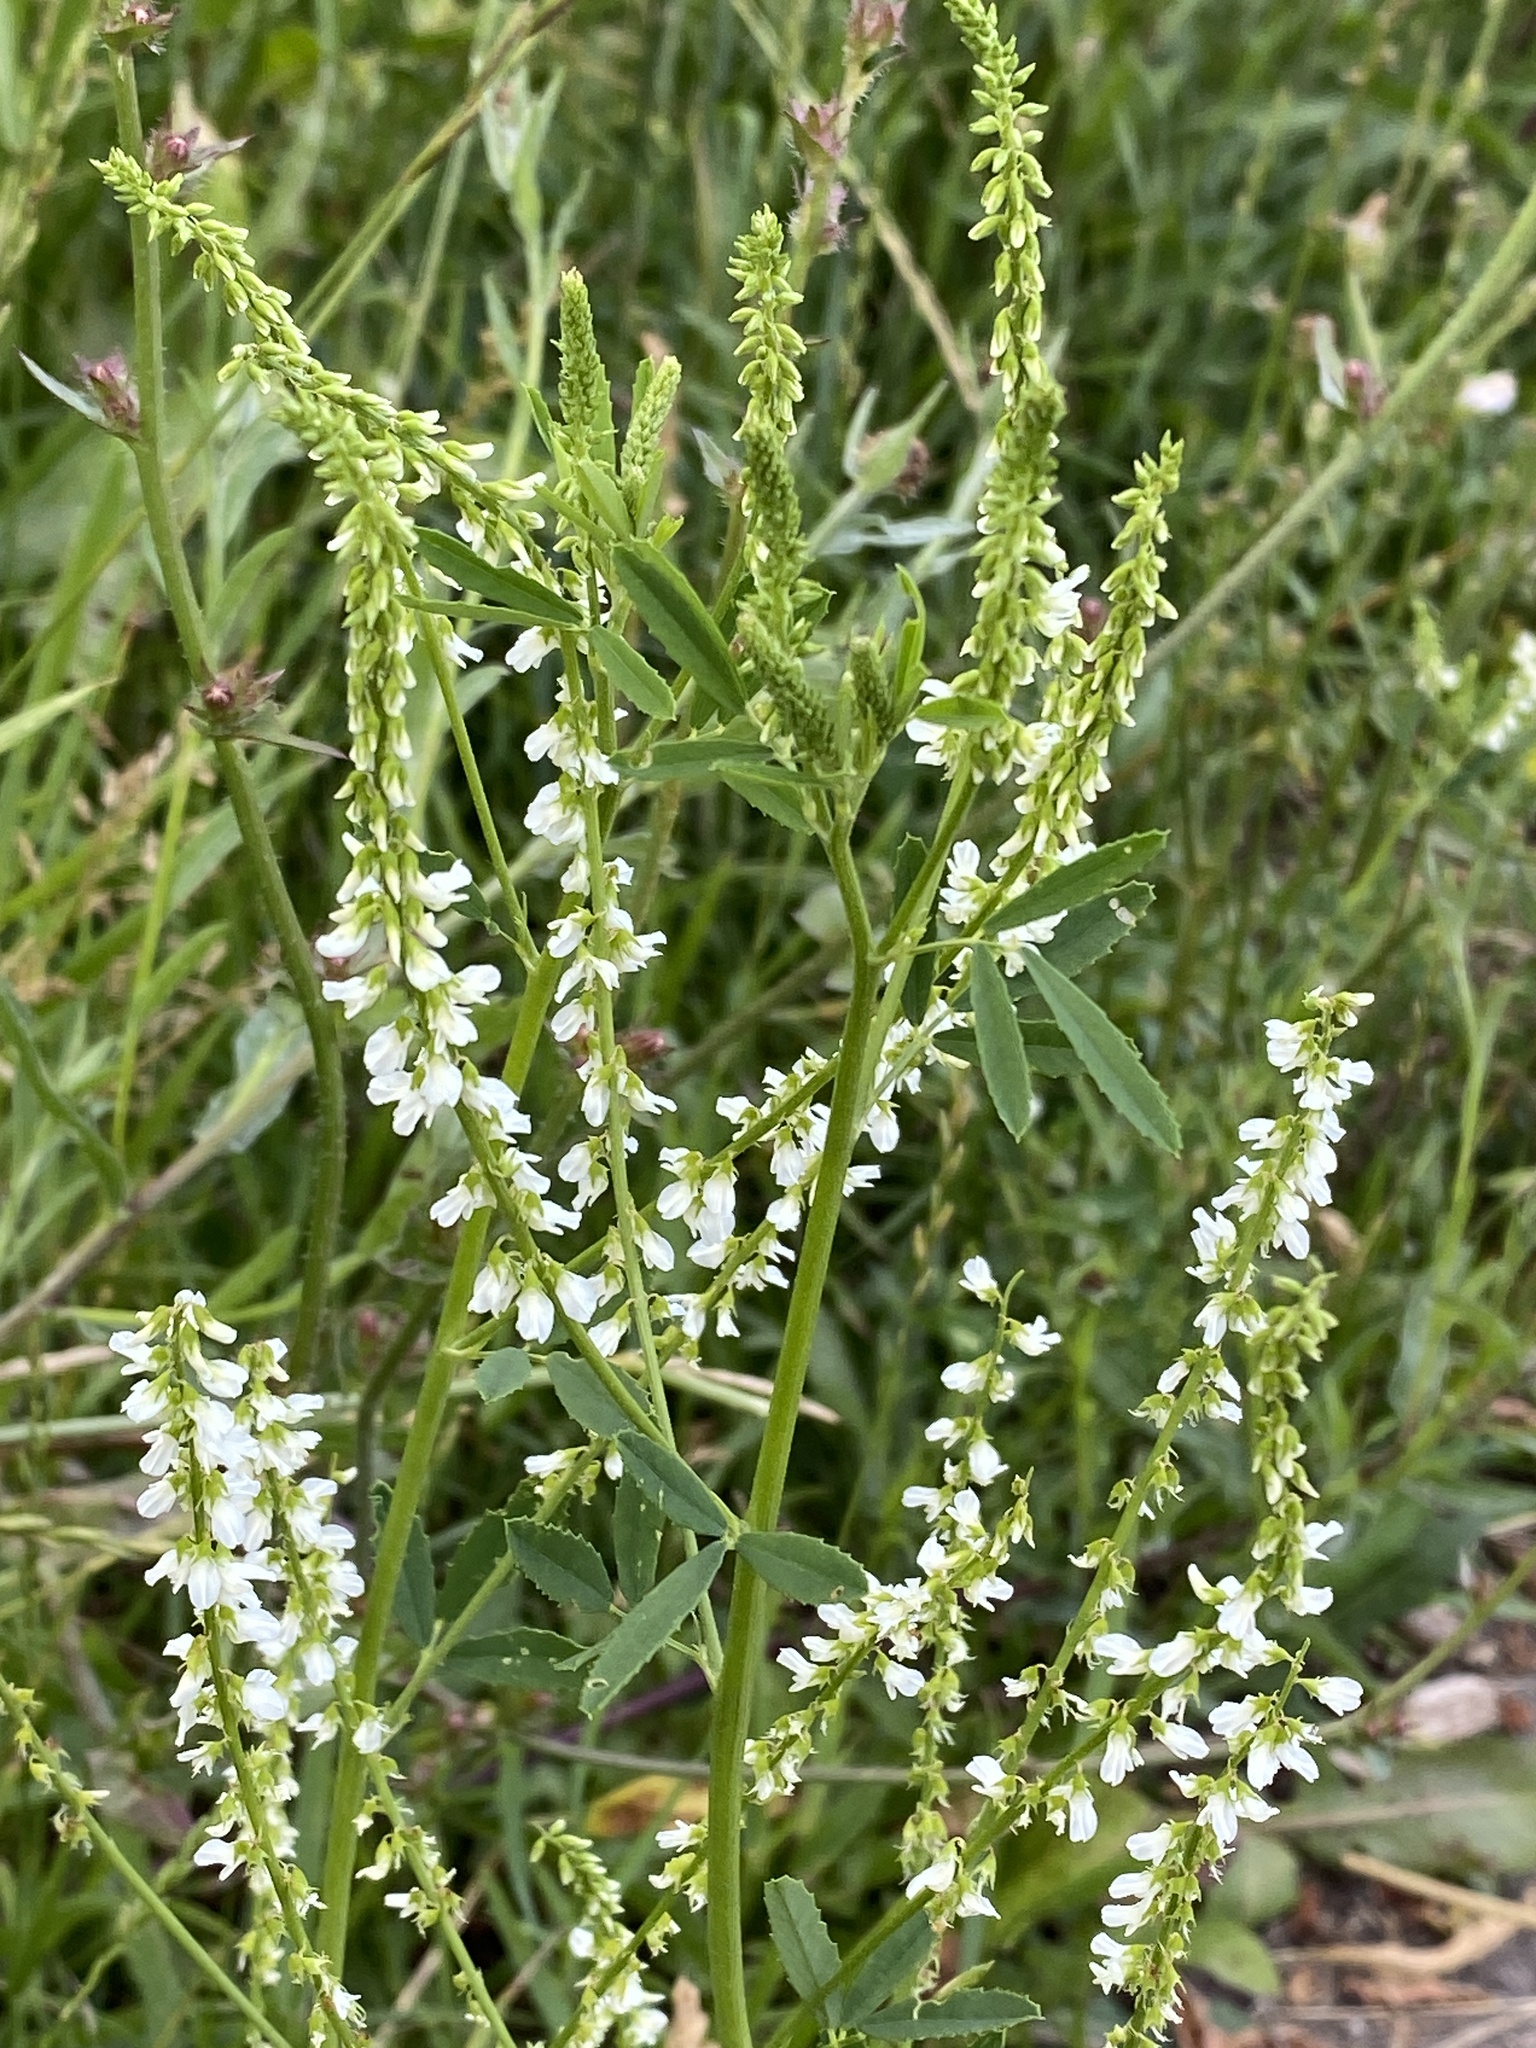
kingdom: Plantae
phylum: Tracheophyta
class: Magnoliopsida
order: Fabales
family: Fabaceae
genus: Melilotus
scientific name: Melilotus albus
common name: White melilot
